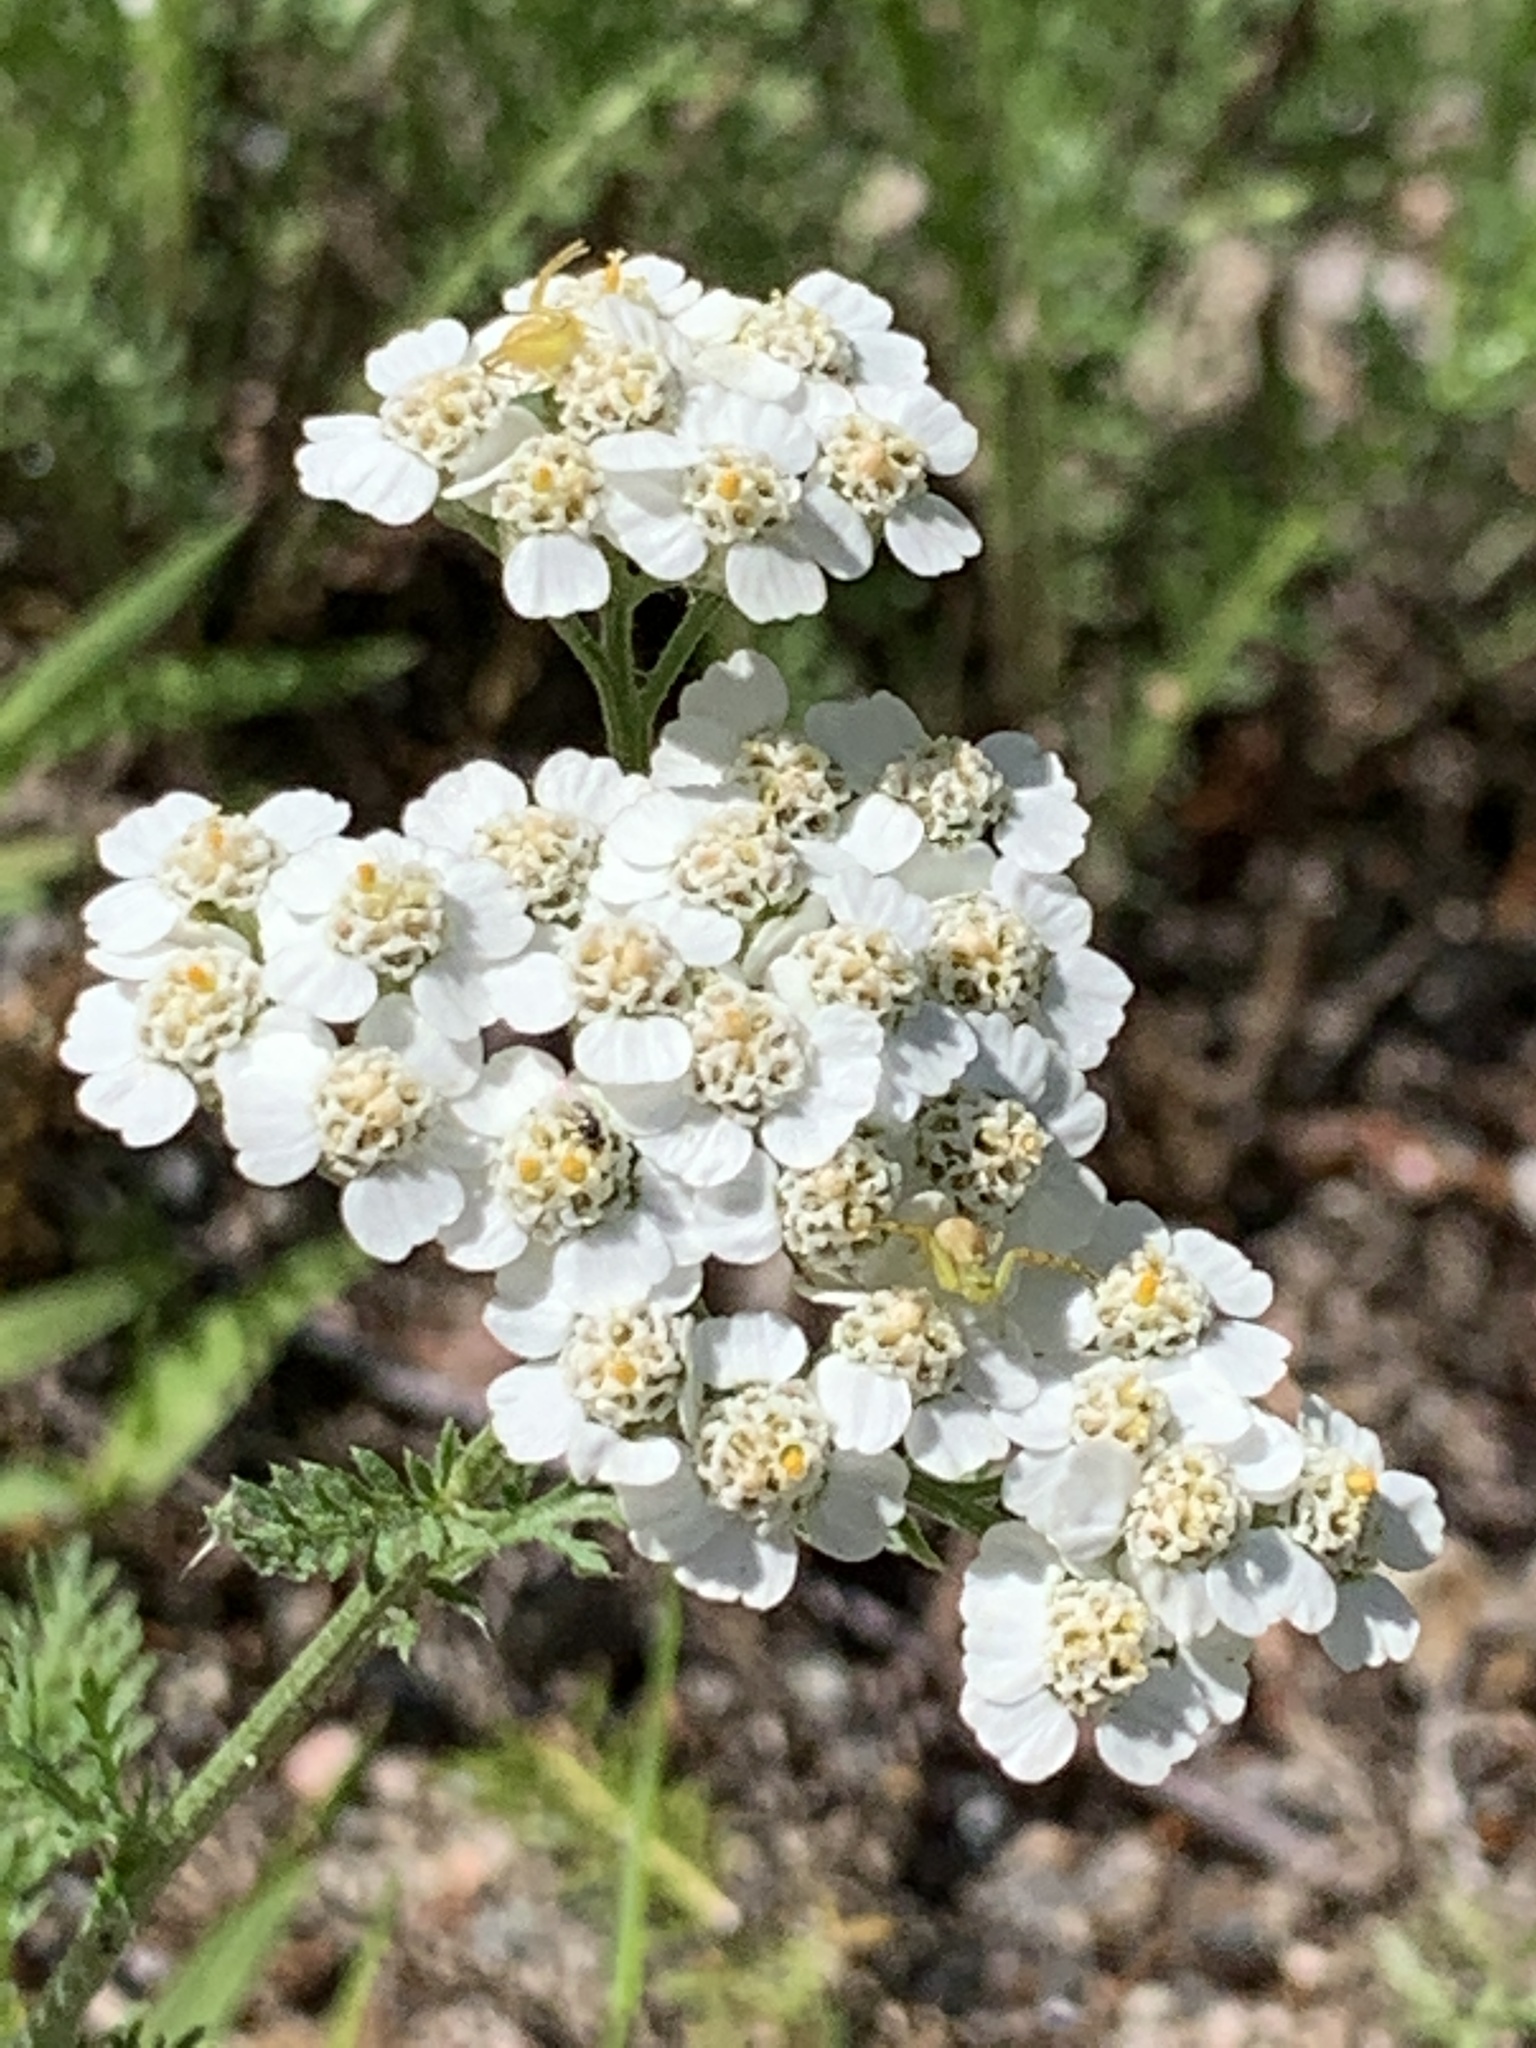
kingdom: Plantae
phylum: Tracheophyta
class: Magnoliopsida
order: Asterales
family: Asteraceae
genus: Achillea
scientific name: Achillea millefolium
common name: Yarrow
